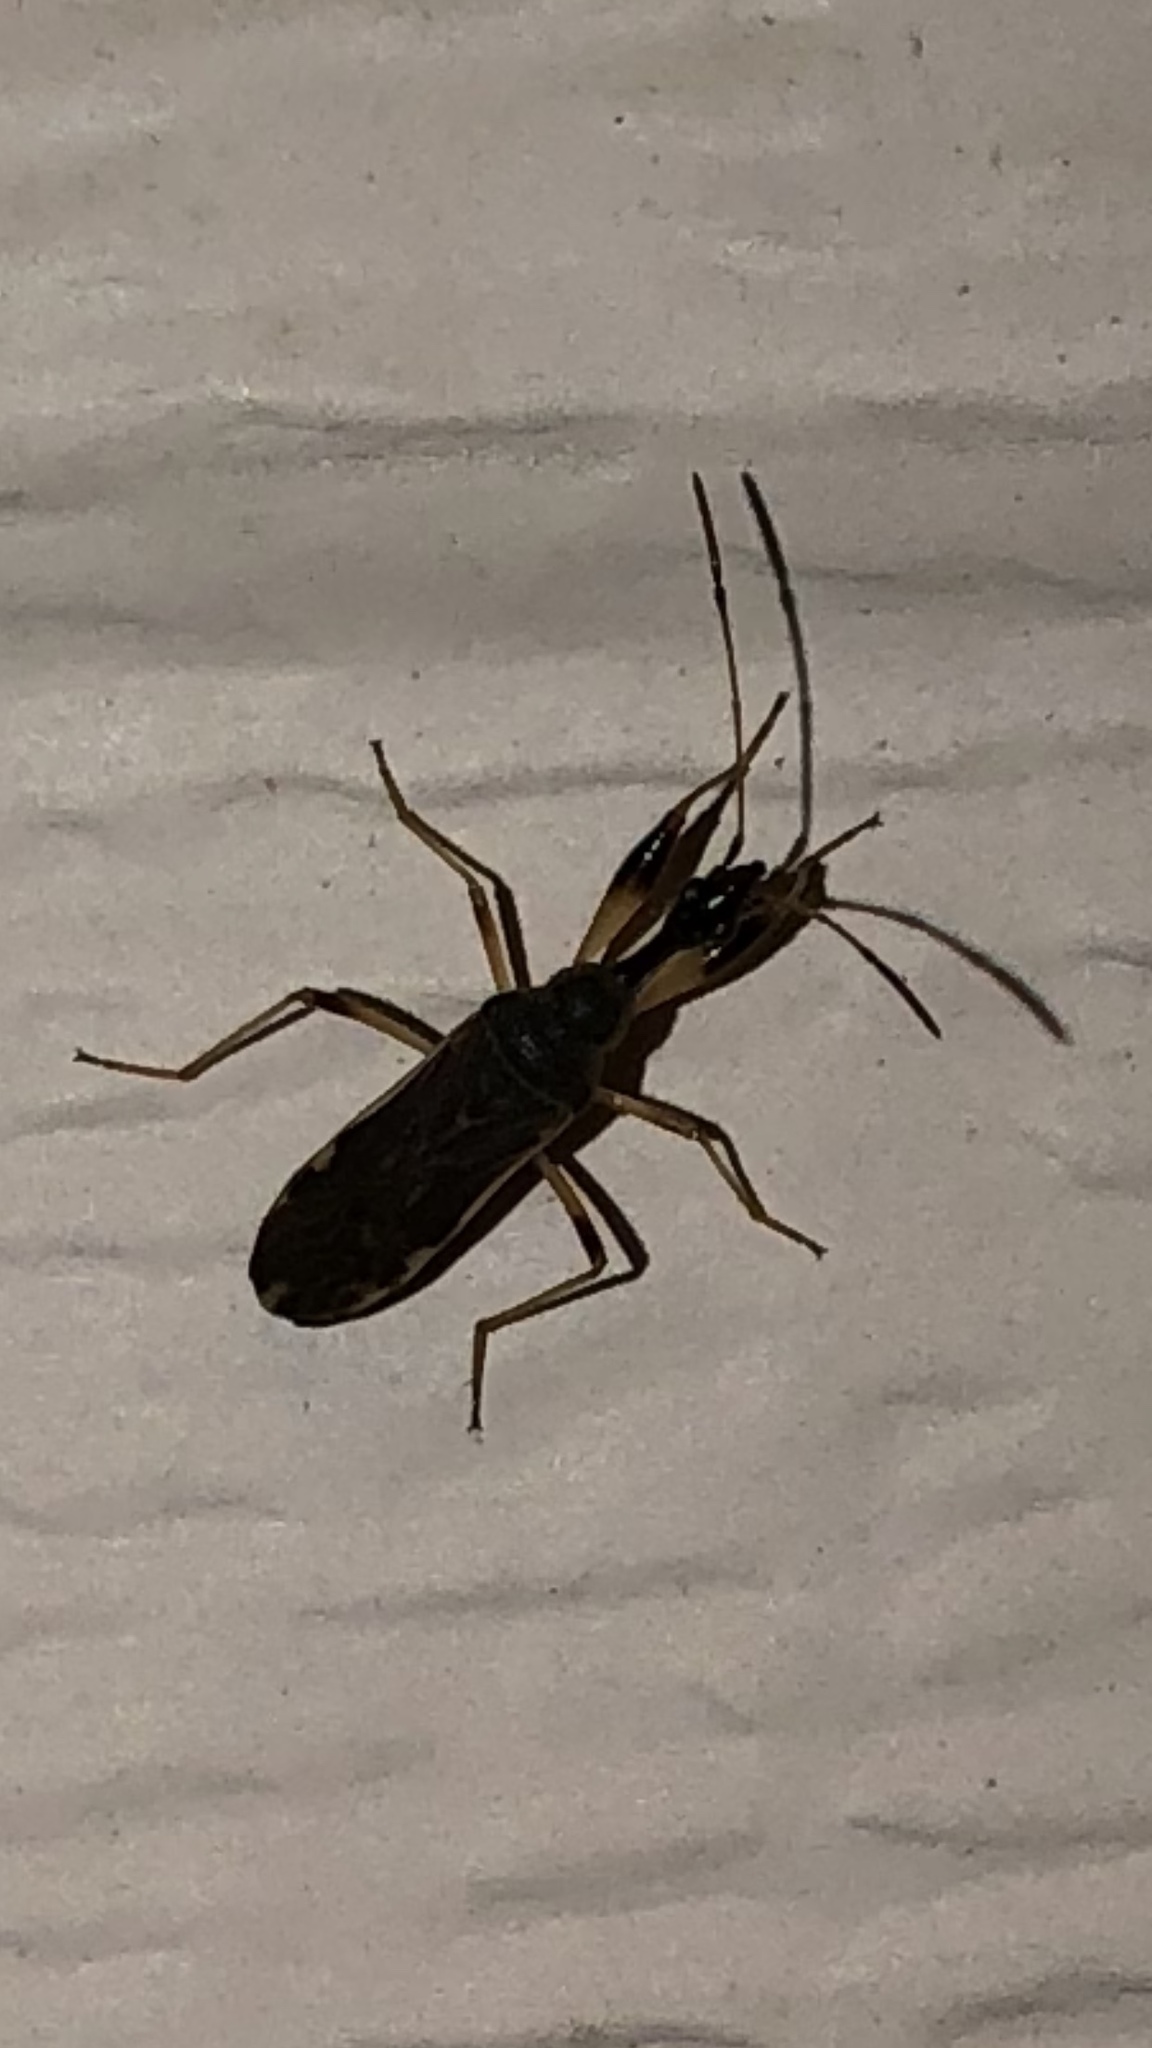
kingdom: Animalia
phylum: Arthropoda
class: Insecta
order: Hemiptera
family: Rhyparochromidae
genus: Myodocha
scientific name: Myodocha serripes
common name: Long-necked seed bug
